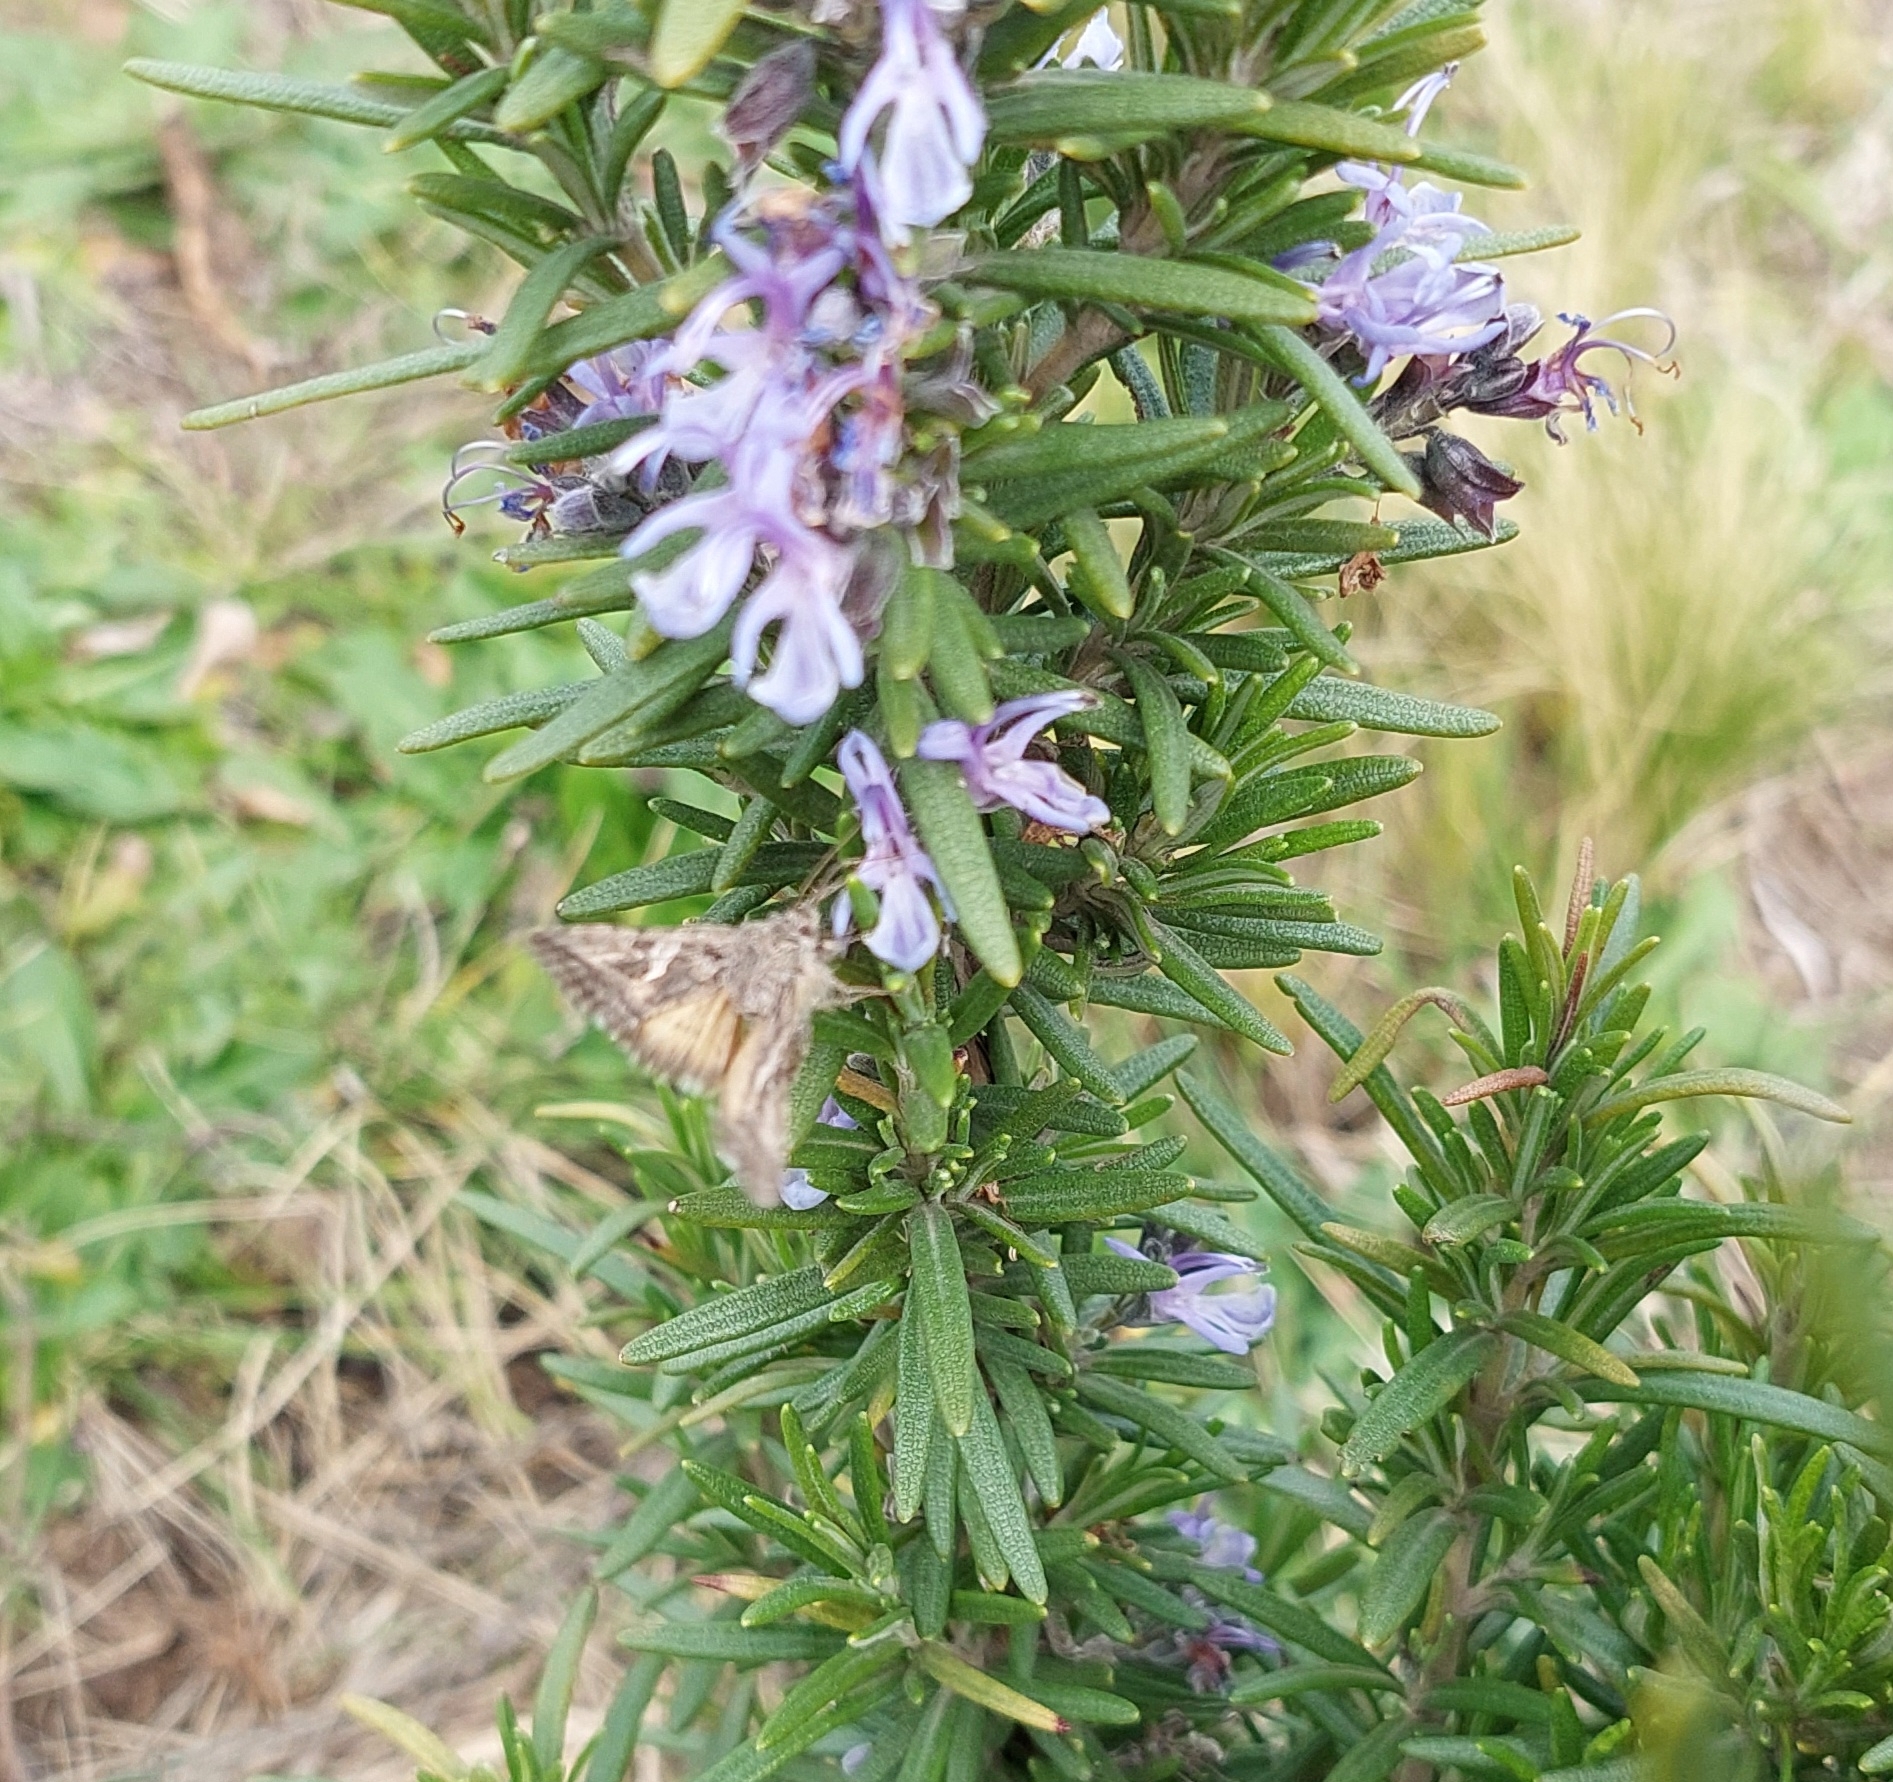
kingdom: Animalia
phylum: Arthropoda
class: Insecta
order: Lepidoptera
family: Noctuidae
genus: Rachiplusia
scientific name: Rachiplusia nu
